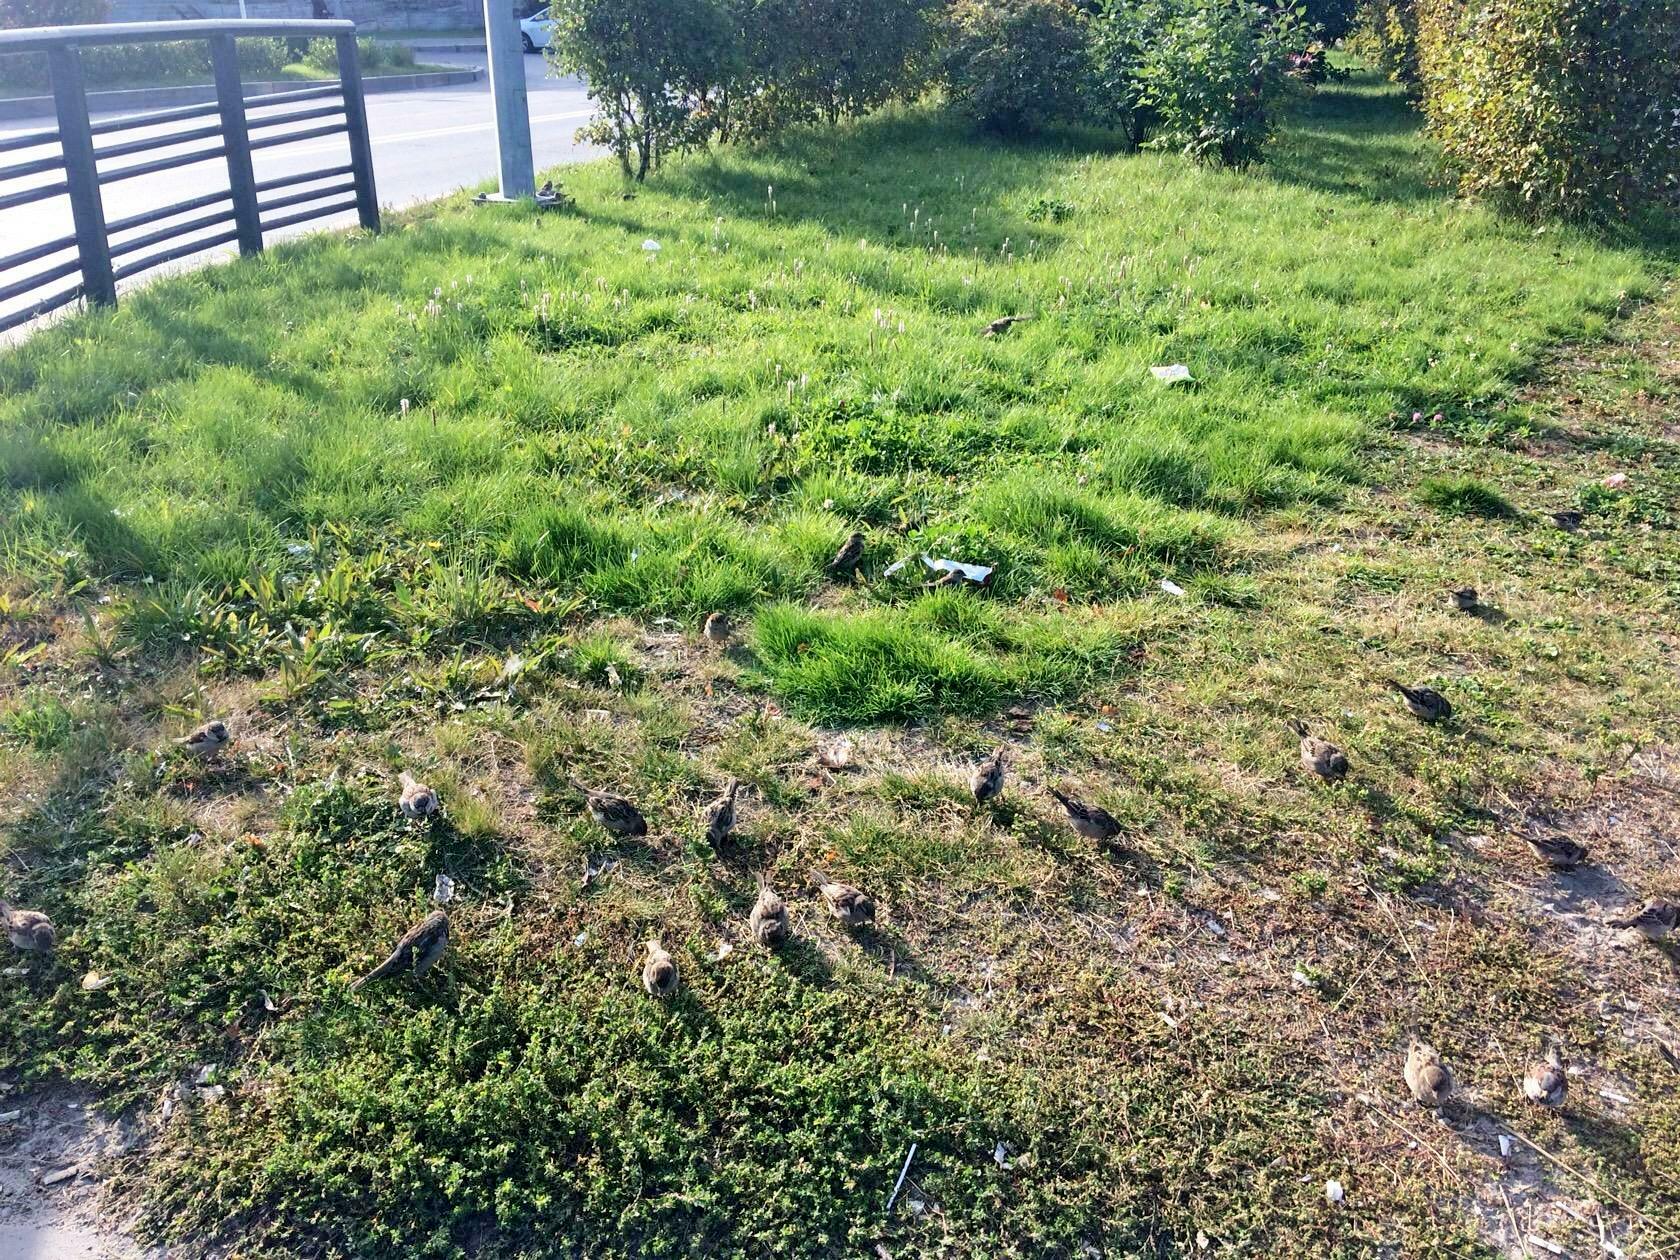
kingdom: Animalia
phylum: Chordata
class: Aves
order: Passeriformes
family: Passeridae
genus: Passer
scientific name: Passer domesticus
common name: House sparrow
